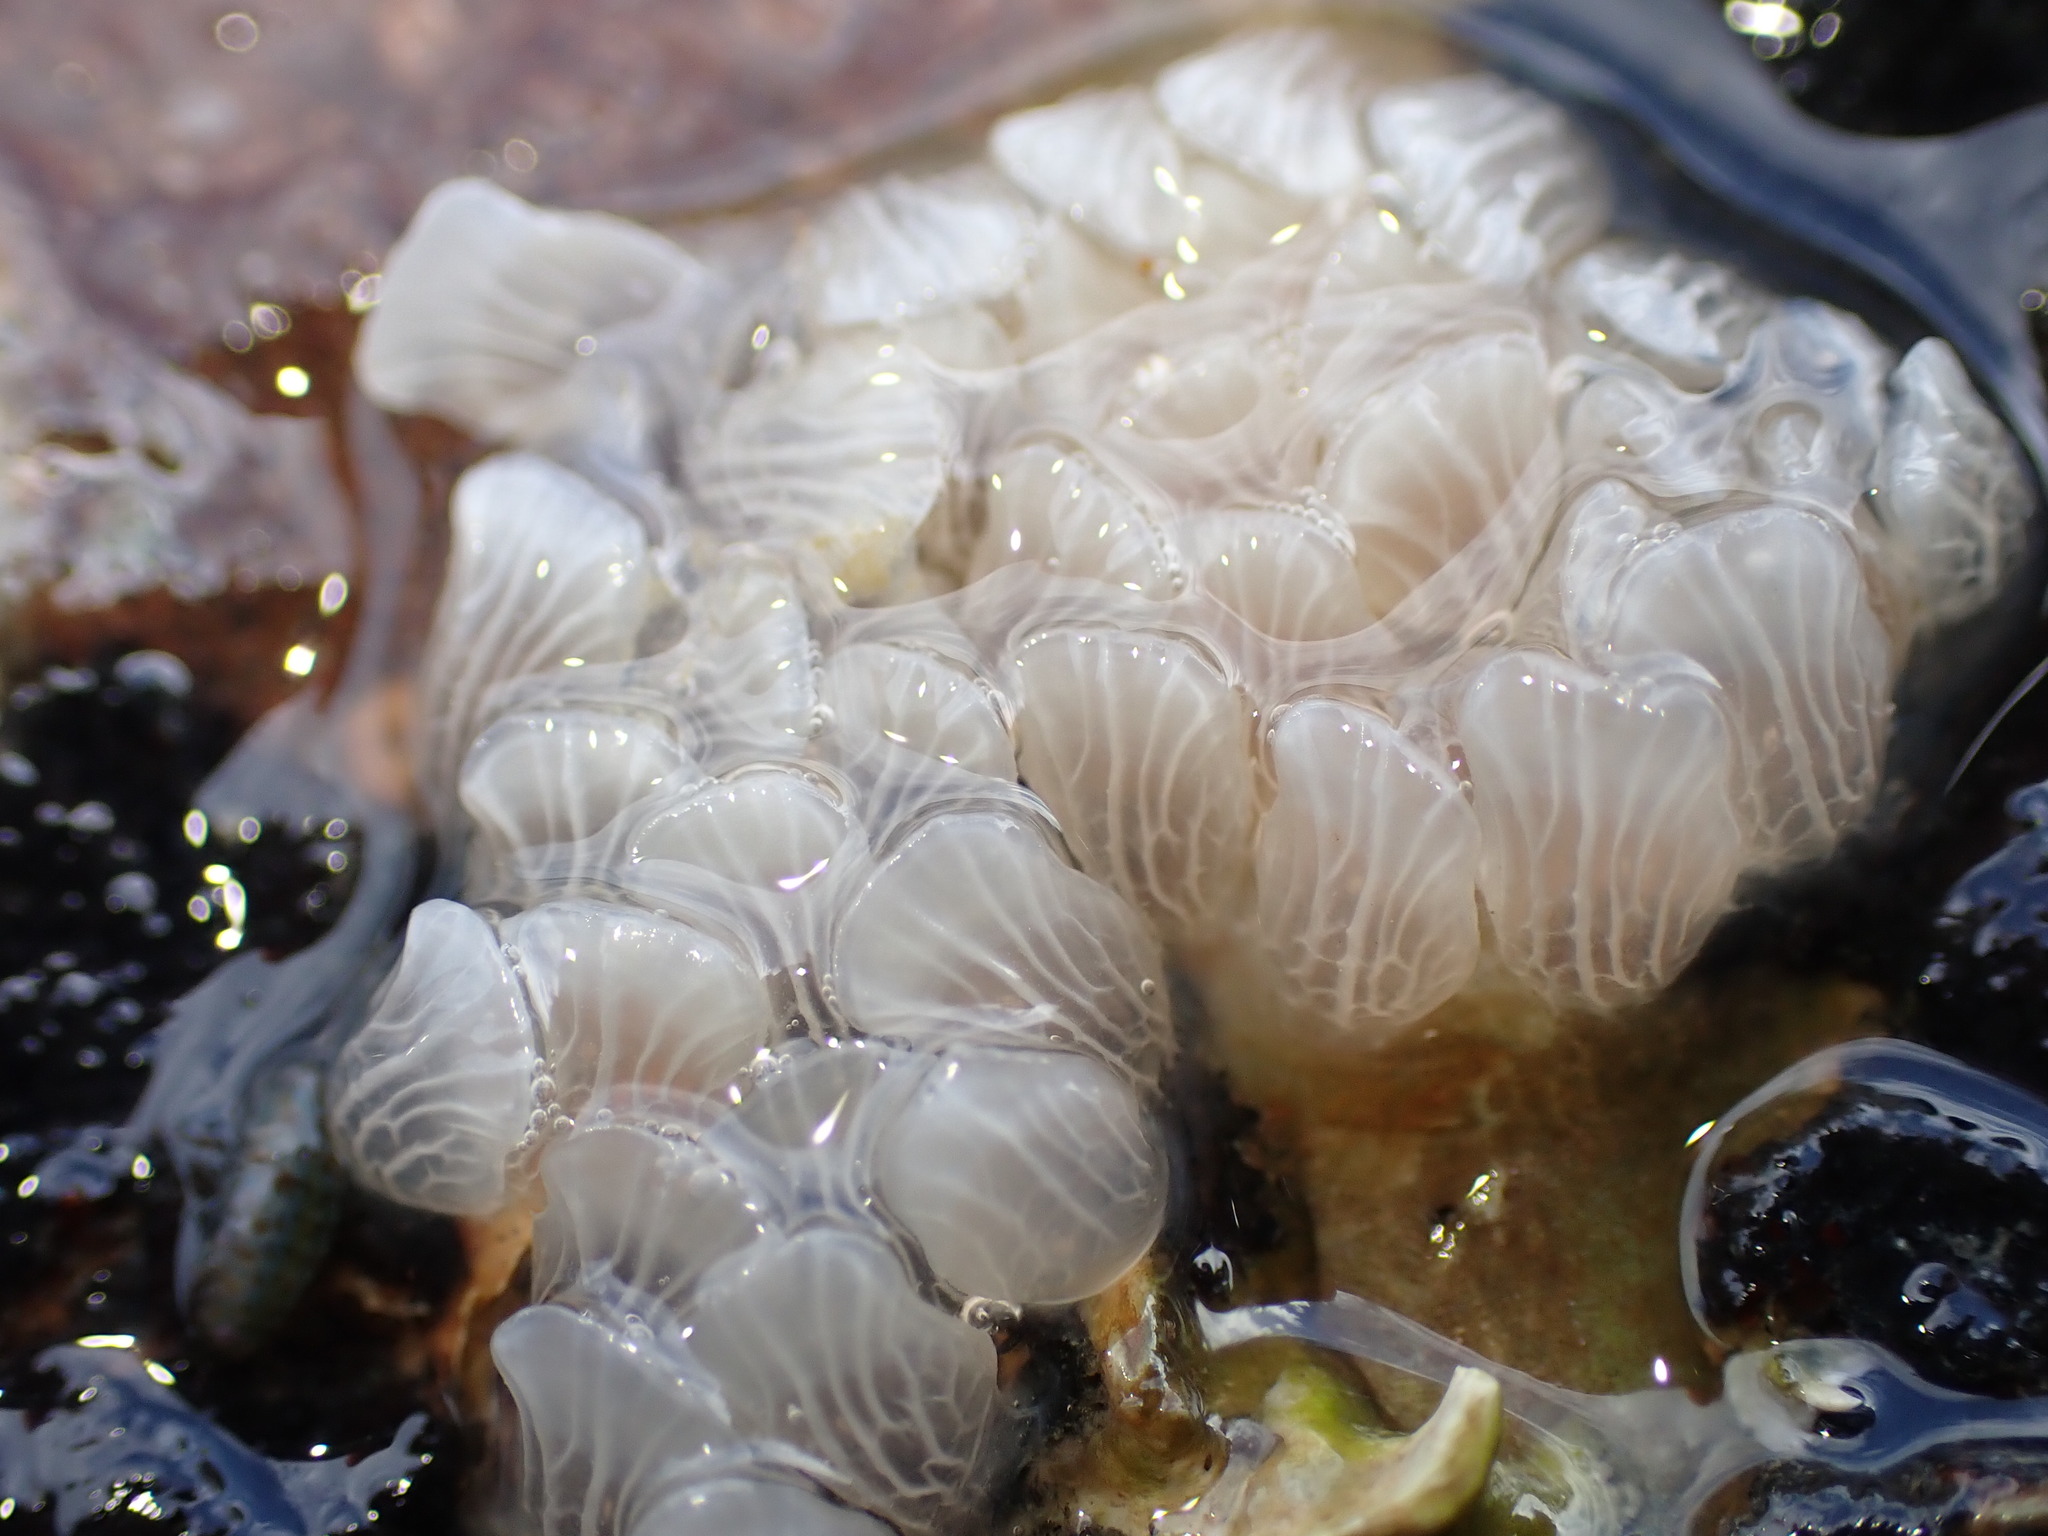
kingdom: Animalia
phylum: Mollusca
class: Gastropoda
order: Neogastropoda
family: Cominellidae
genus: Cominella
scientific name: Cominella virgata
